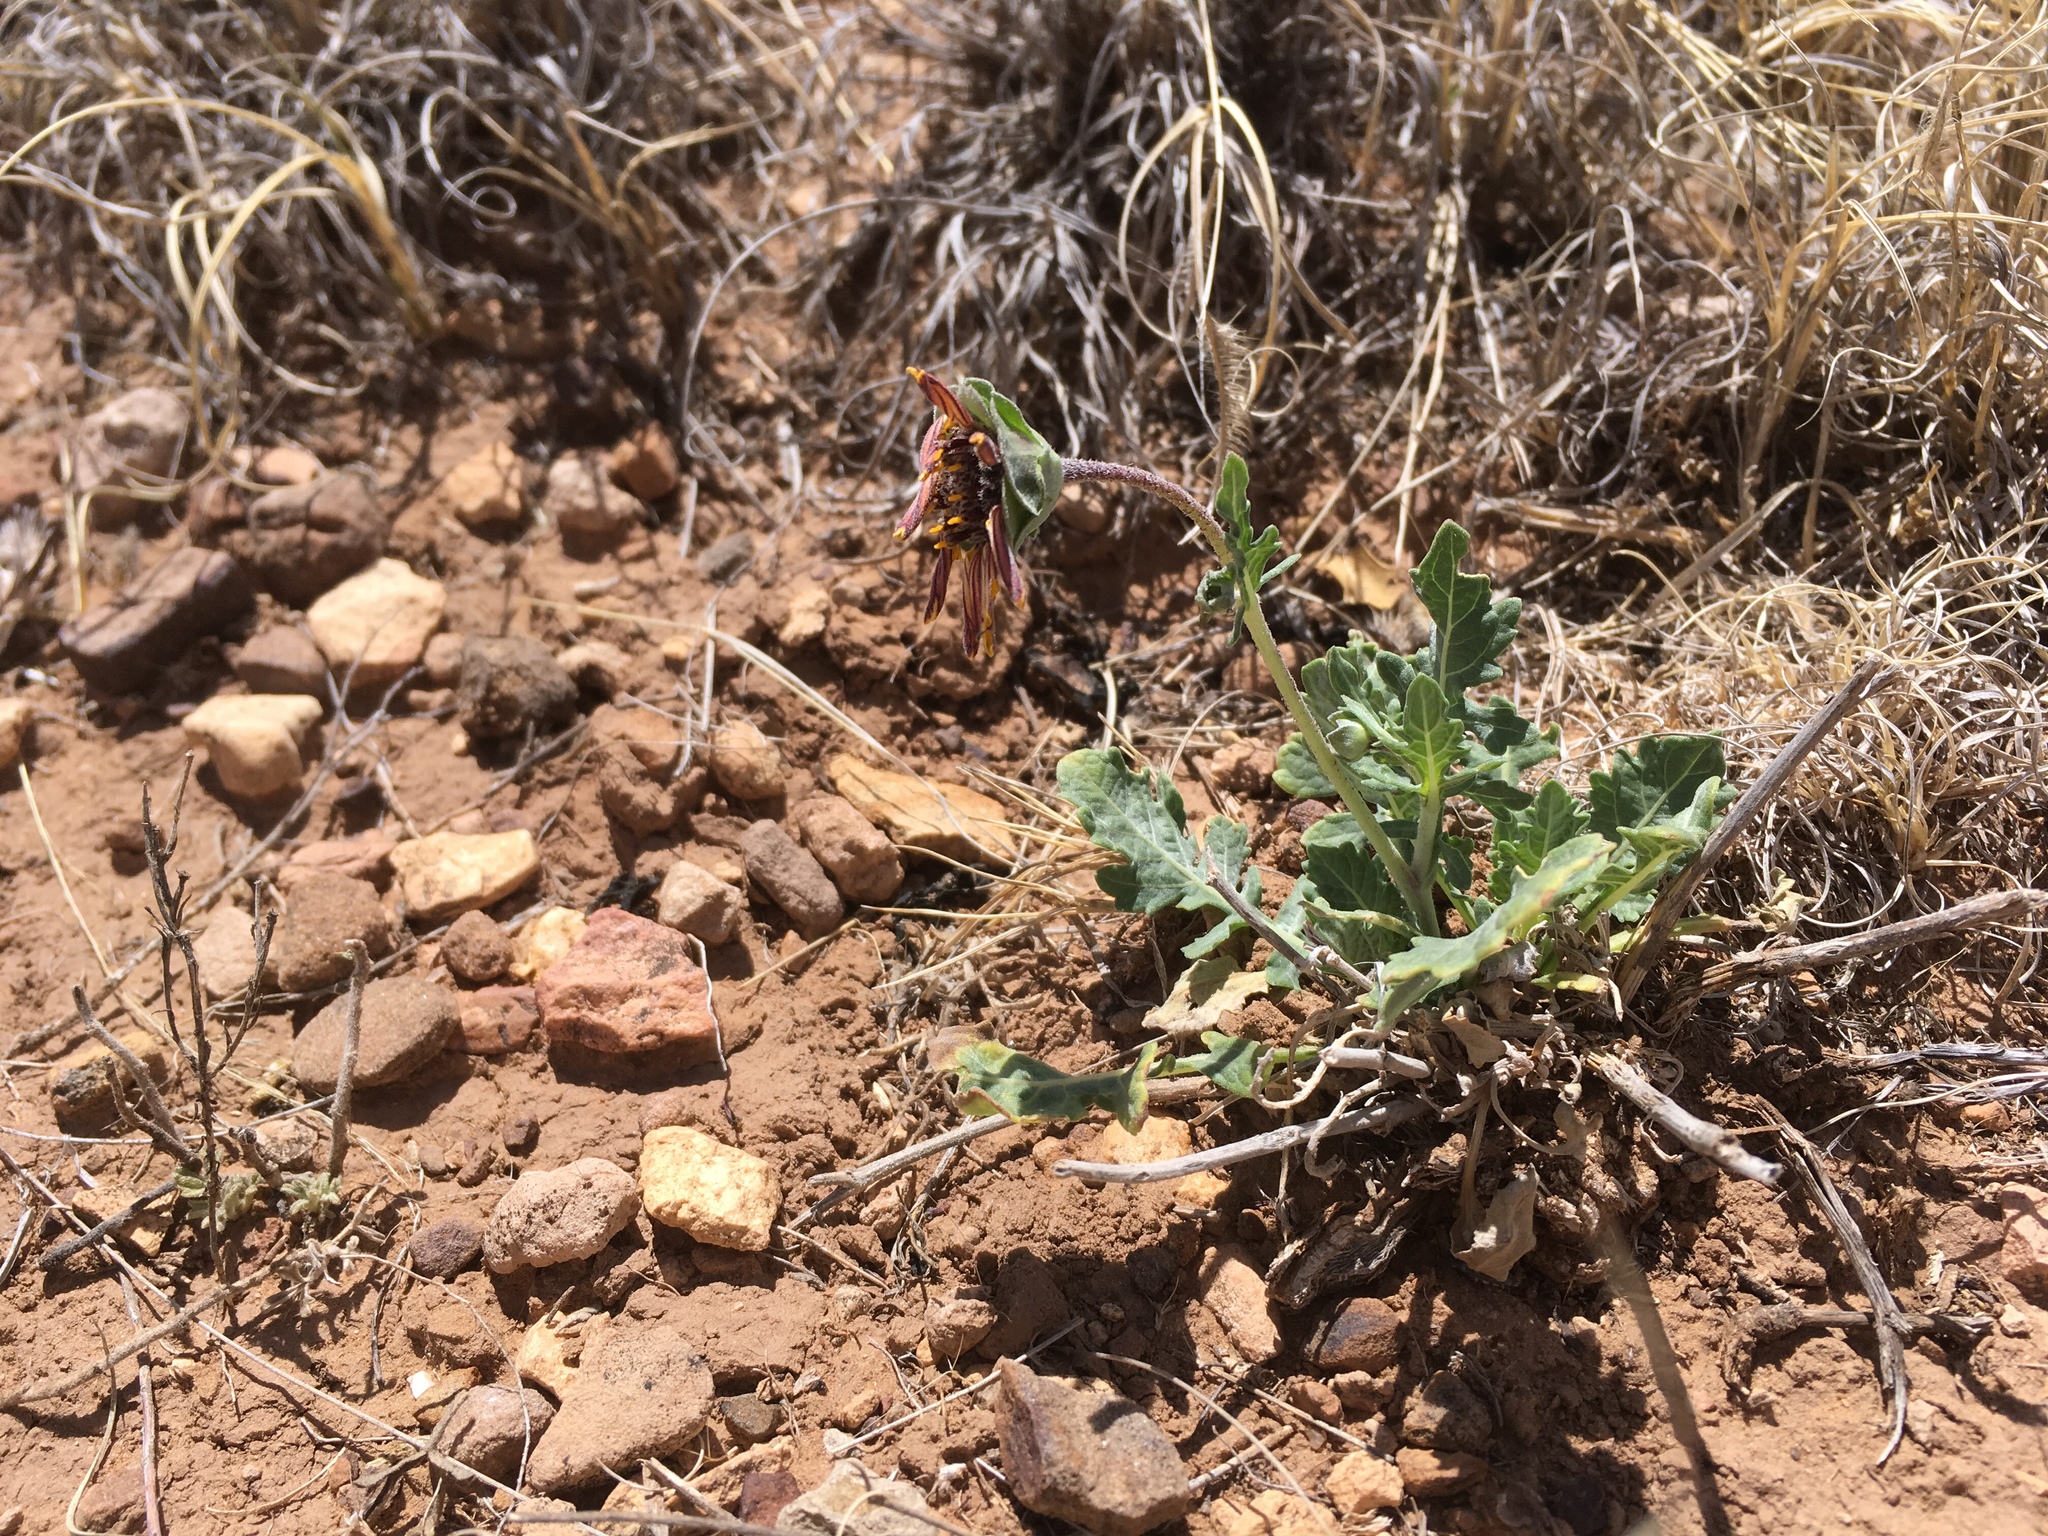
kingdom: Plantae
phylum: Tracheophyta
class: Magnoliopsida
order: Asterales
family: Asteraceae
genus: Berlandiera
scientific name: Berlandiera lyrata
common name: Chocolate-flower
